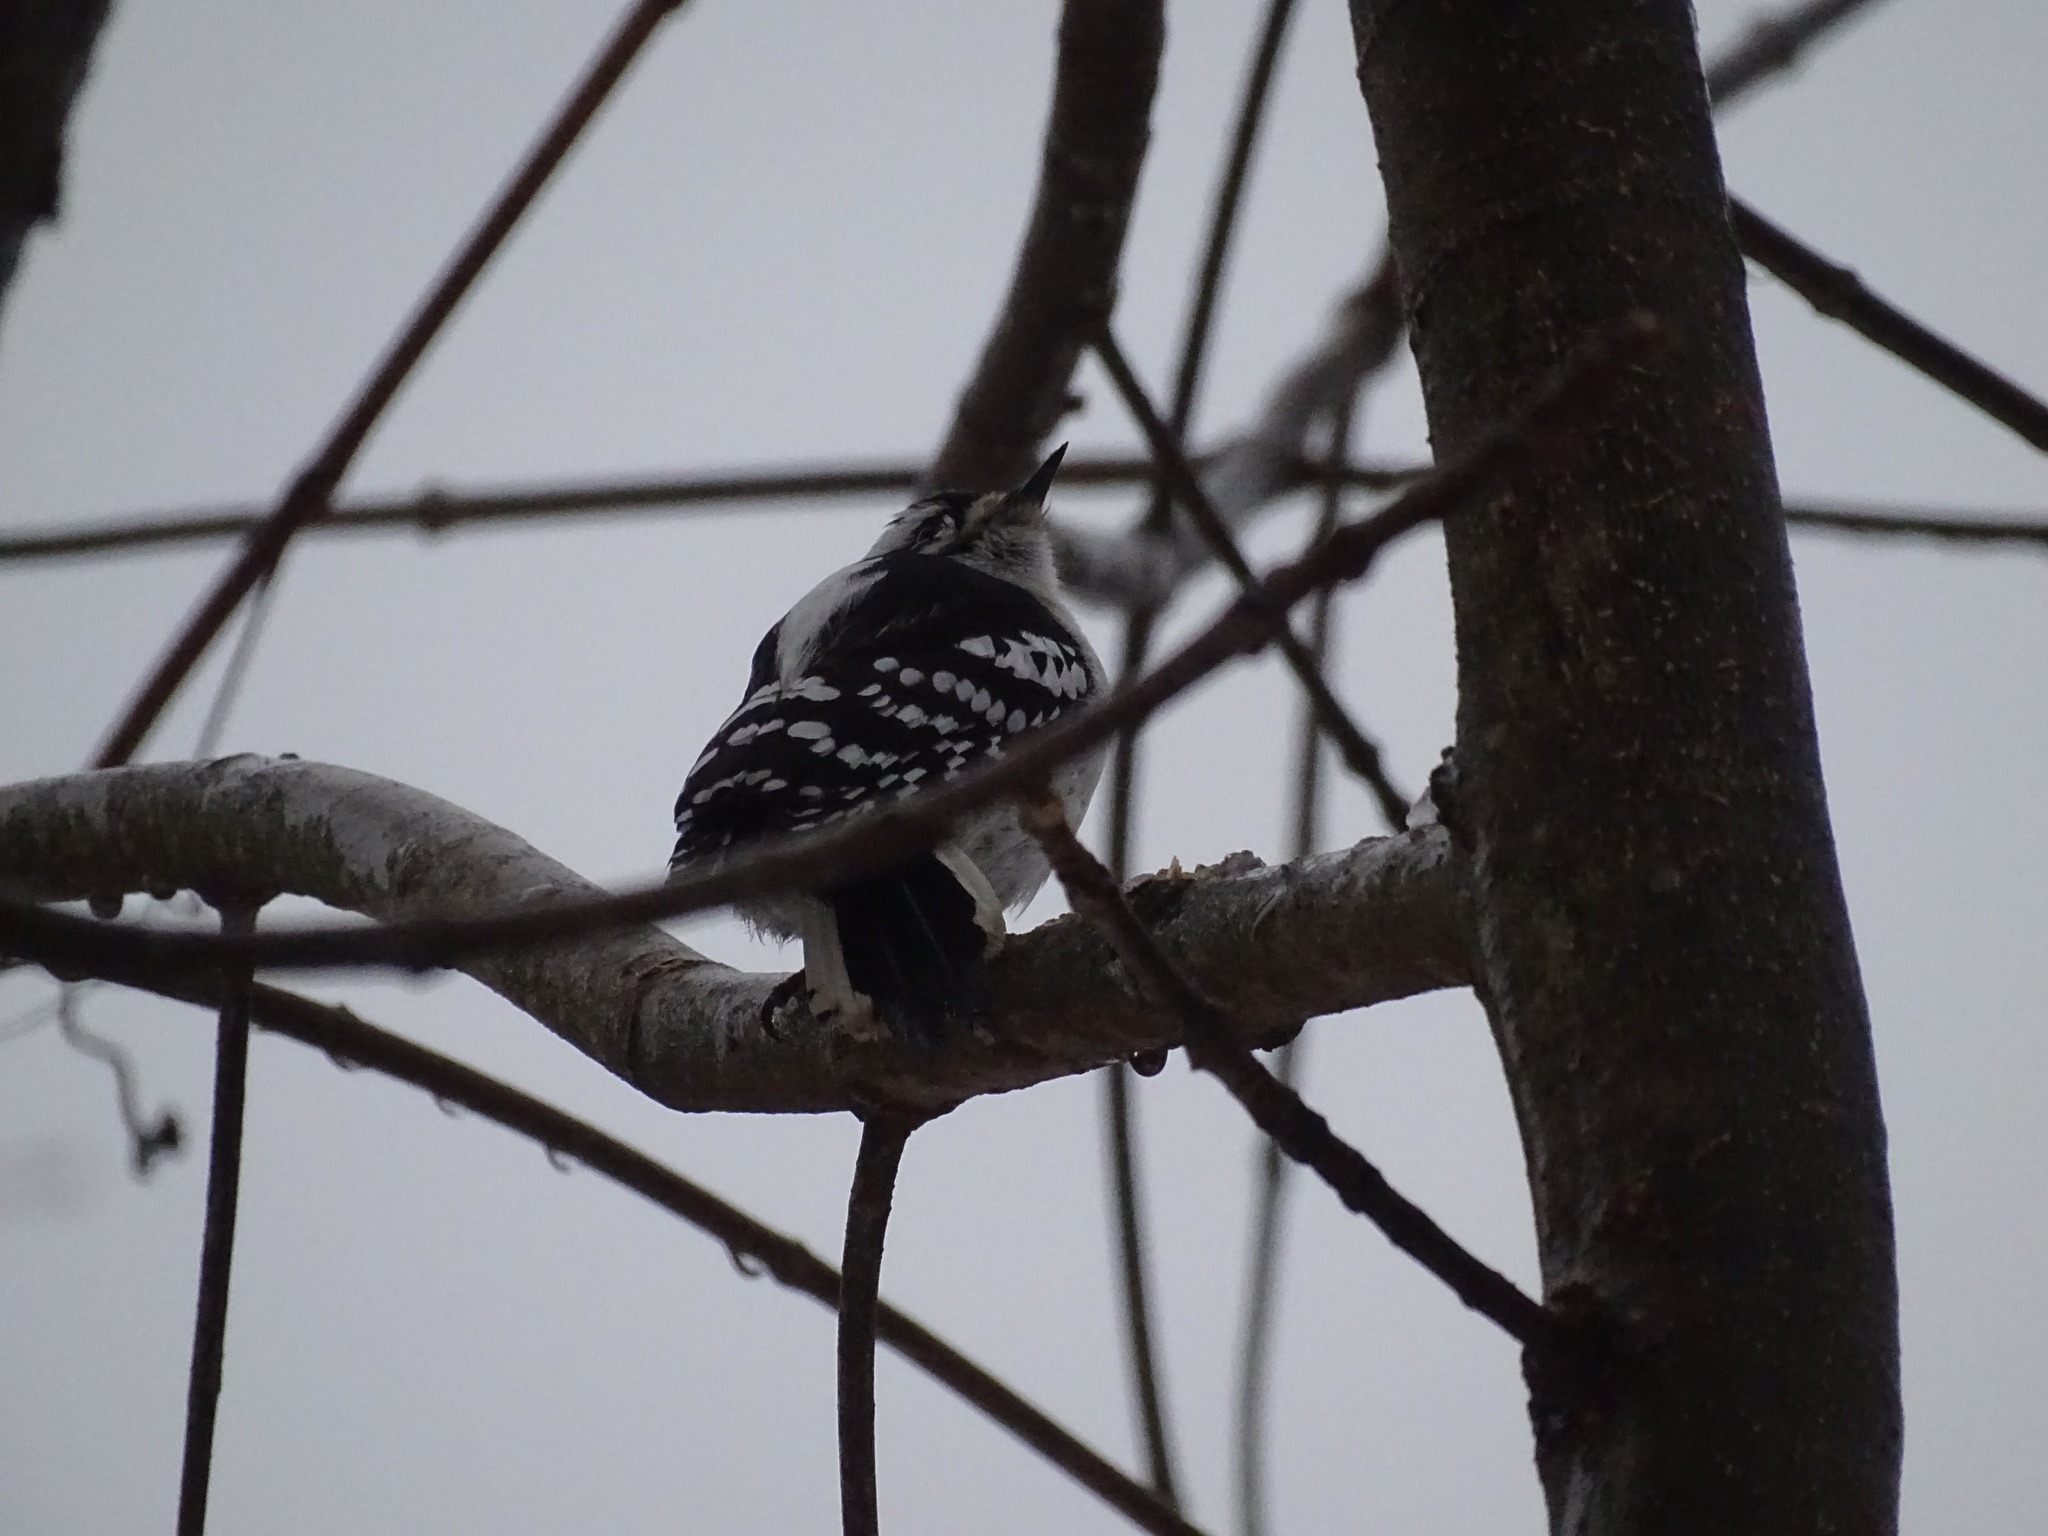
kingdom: Animalia
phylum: Chordata
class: Aves
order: Piciformes
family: Picidae
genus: Dryobates
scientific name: Dryobates pubescens
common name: Downy woodpecker
